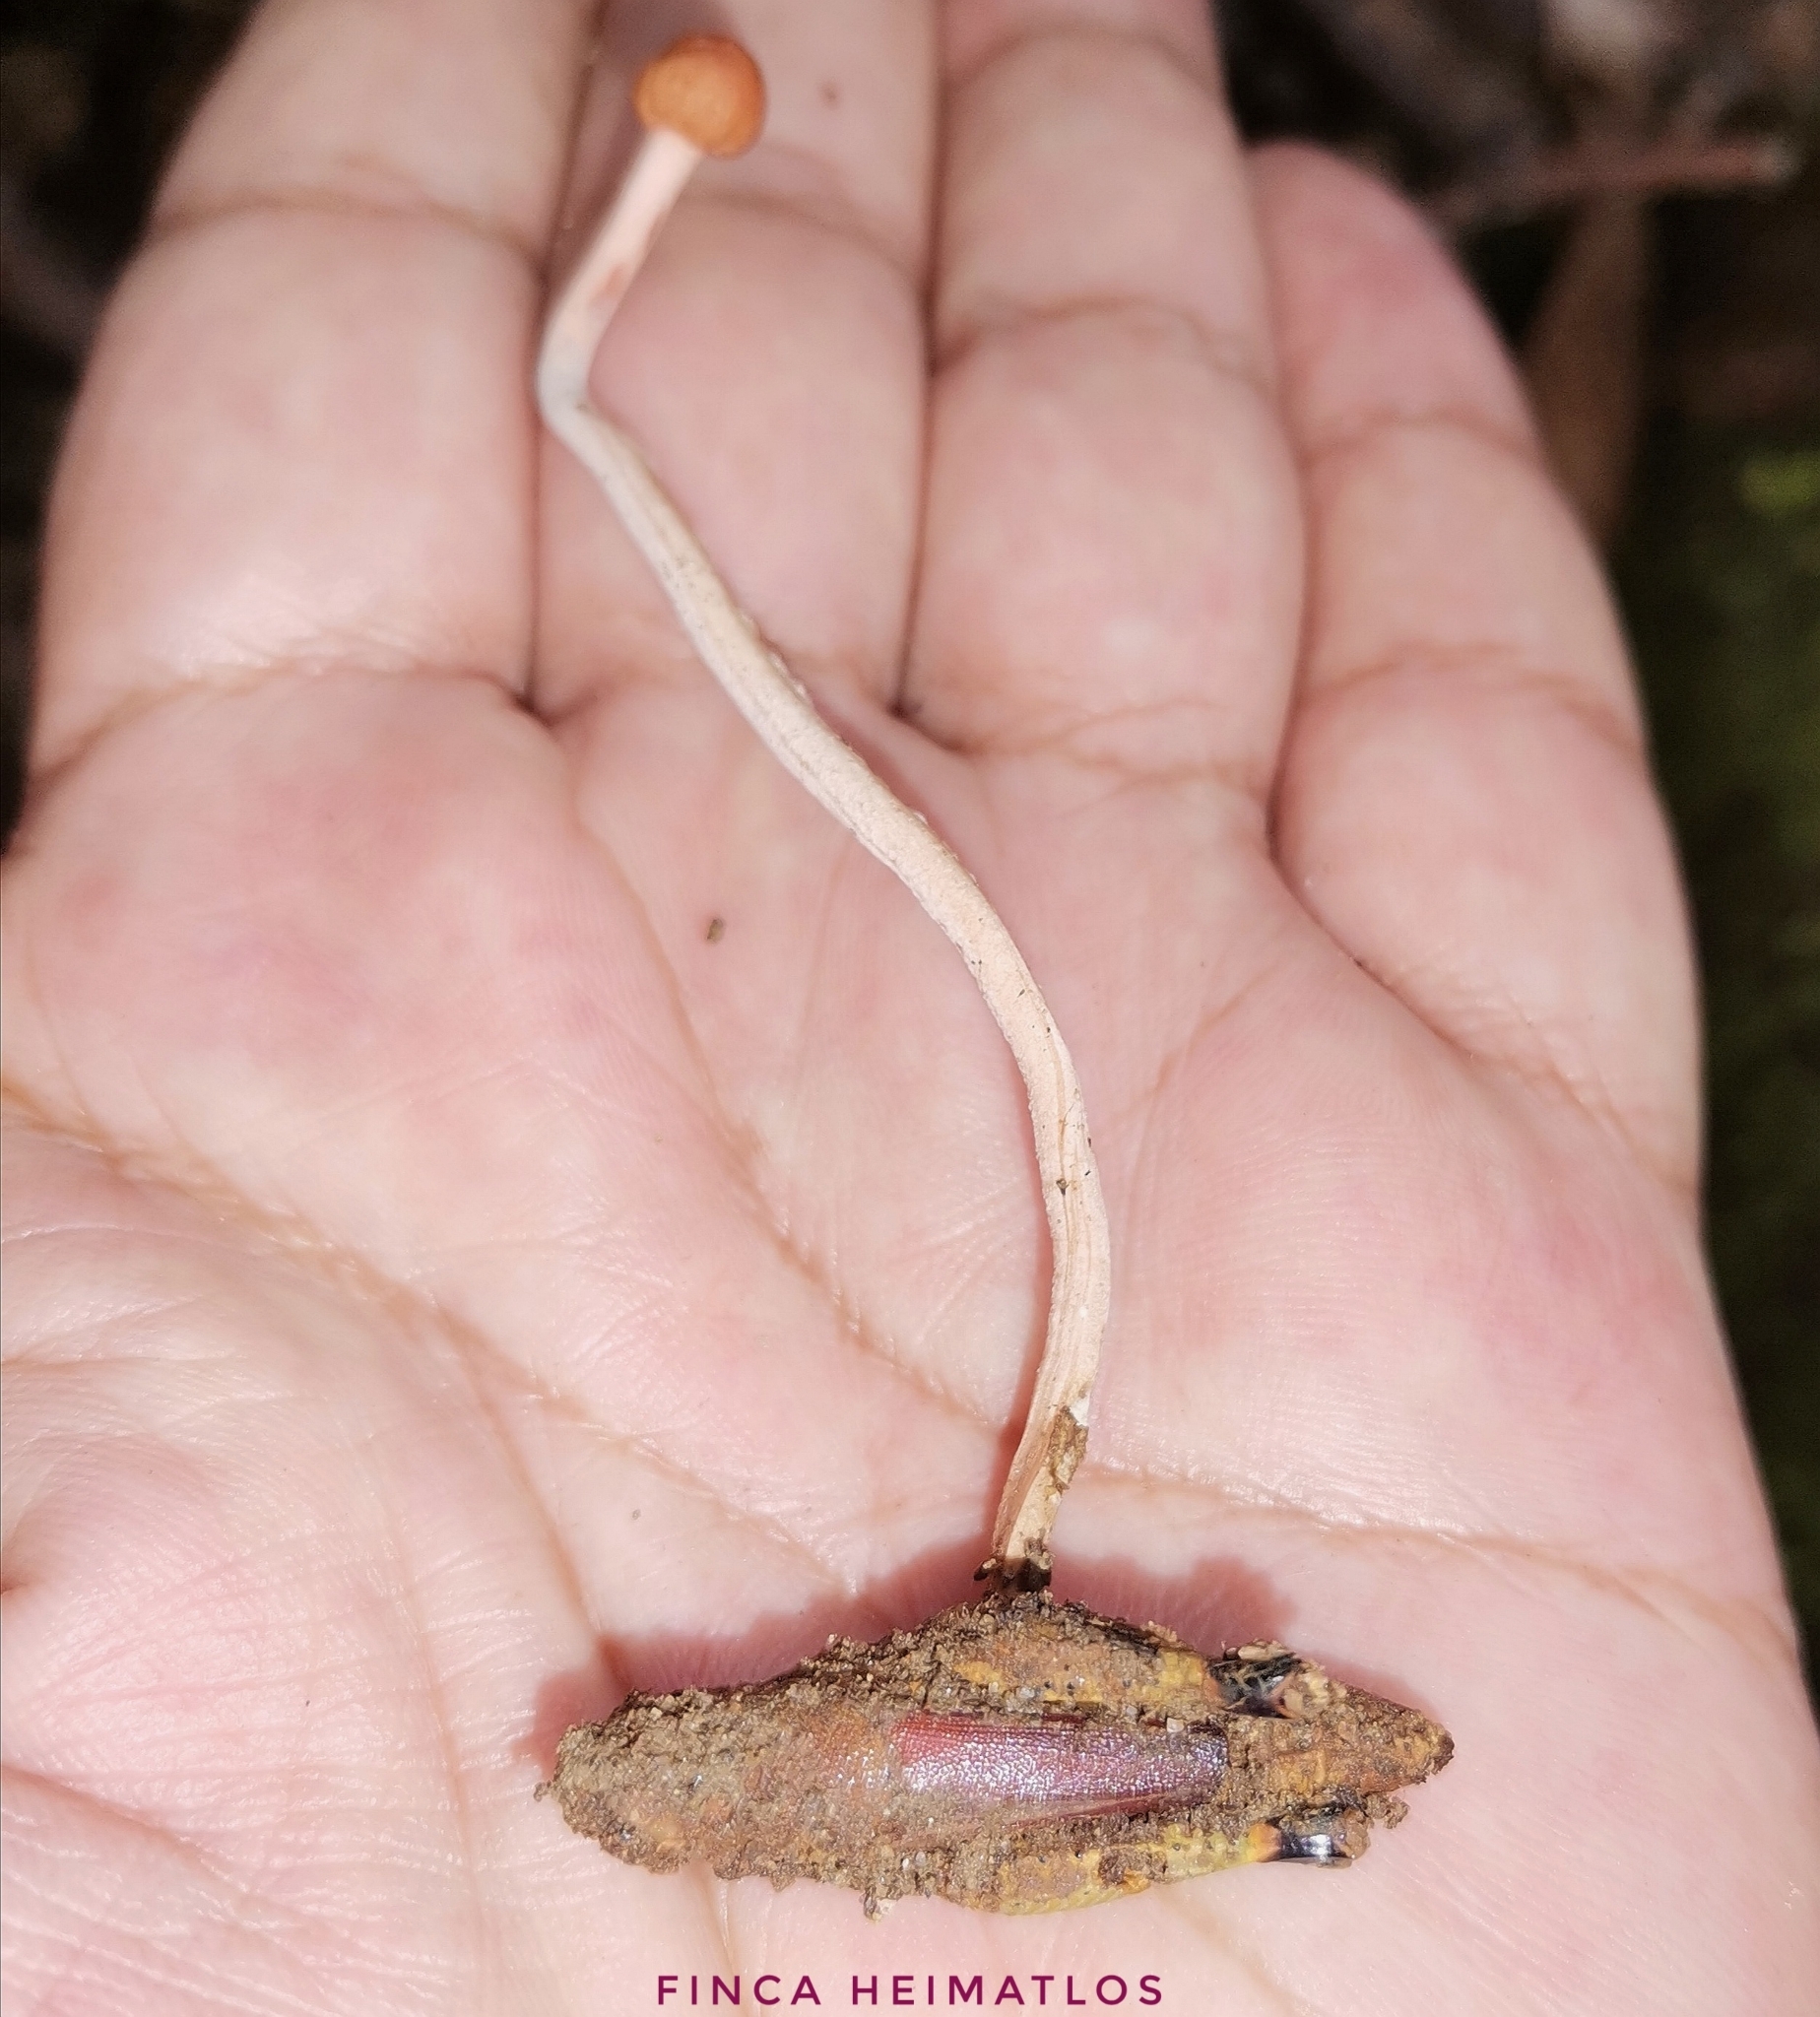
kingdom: Fungi
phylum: Ascomycota
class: Sordariomycetes
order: Hypocreales
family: Ophiocordycipitaceae
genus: Paraisaria
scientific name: Paraisaria amazonica
